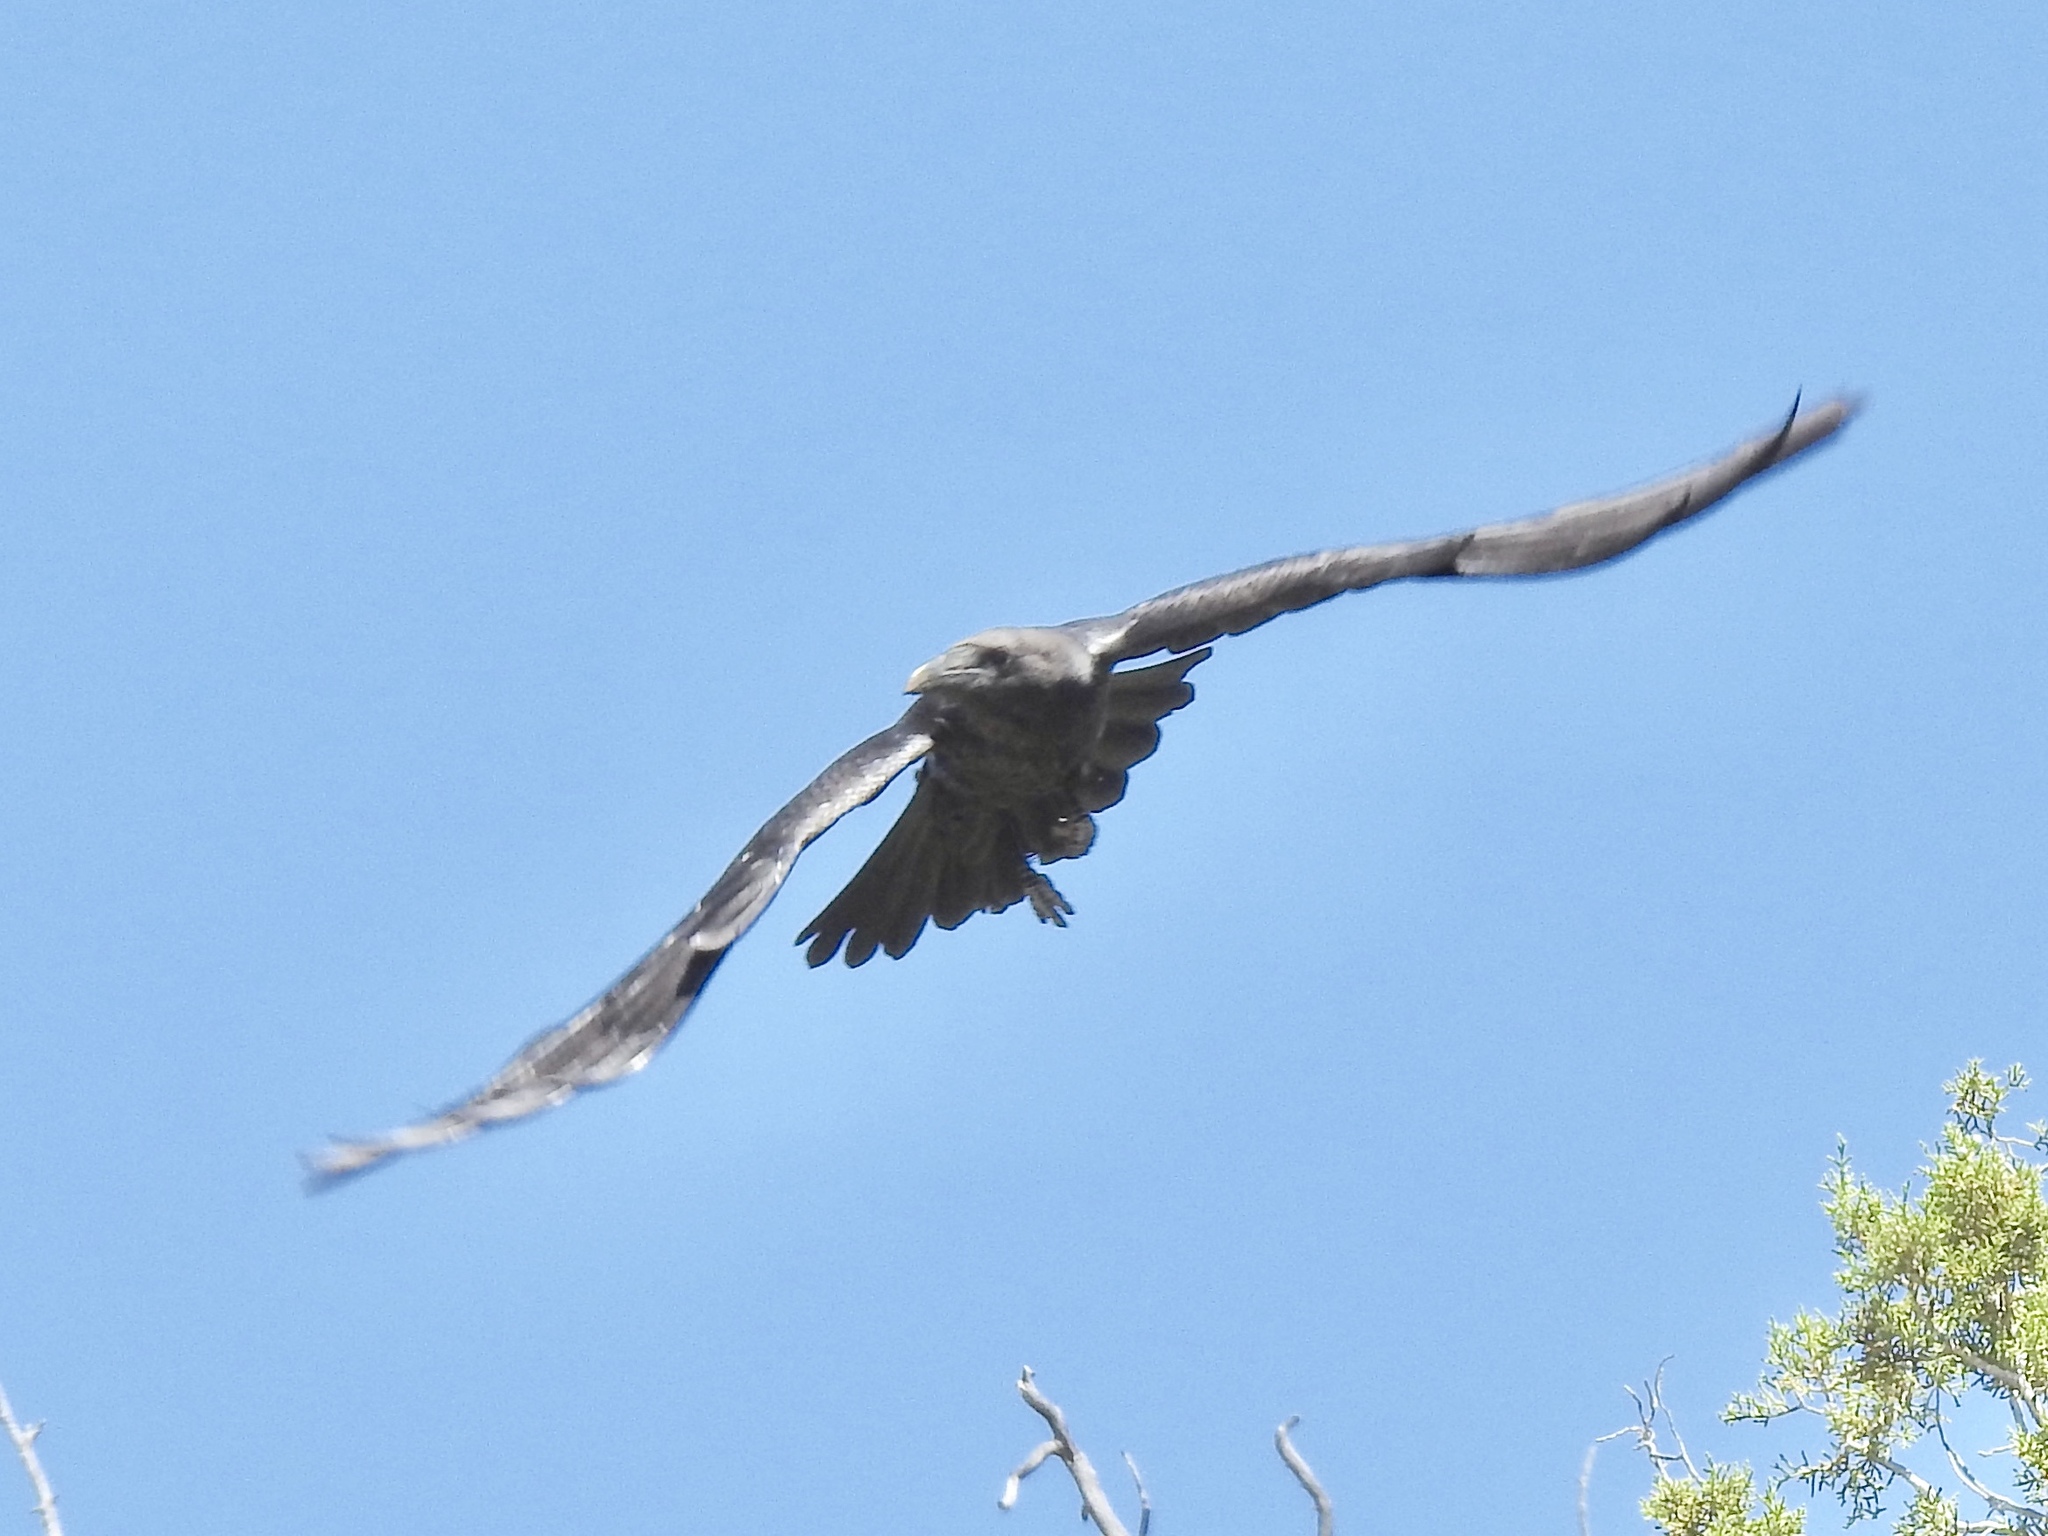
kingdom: Animalia
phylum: Chordata
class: Aves
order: Passeriformes
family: Corvidae
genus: Corvus
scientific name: Corvus corax
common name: Common raven
